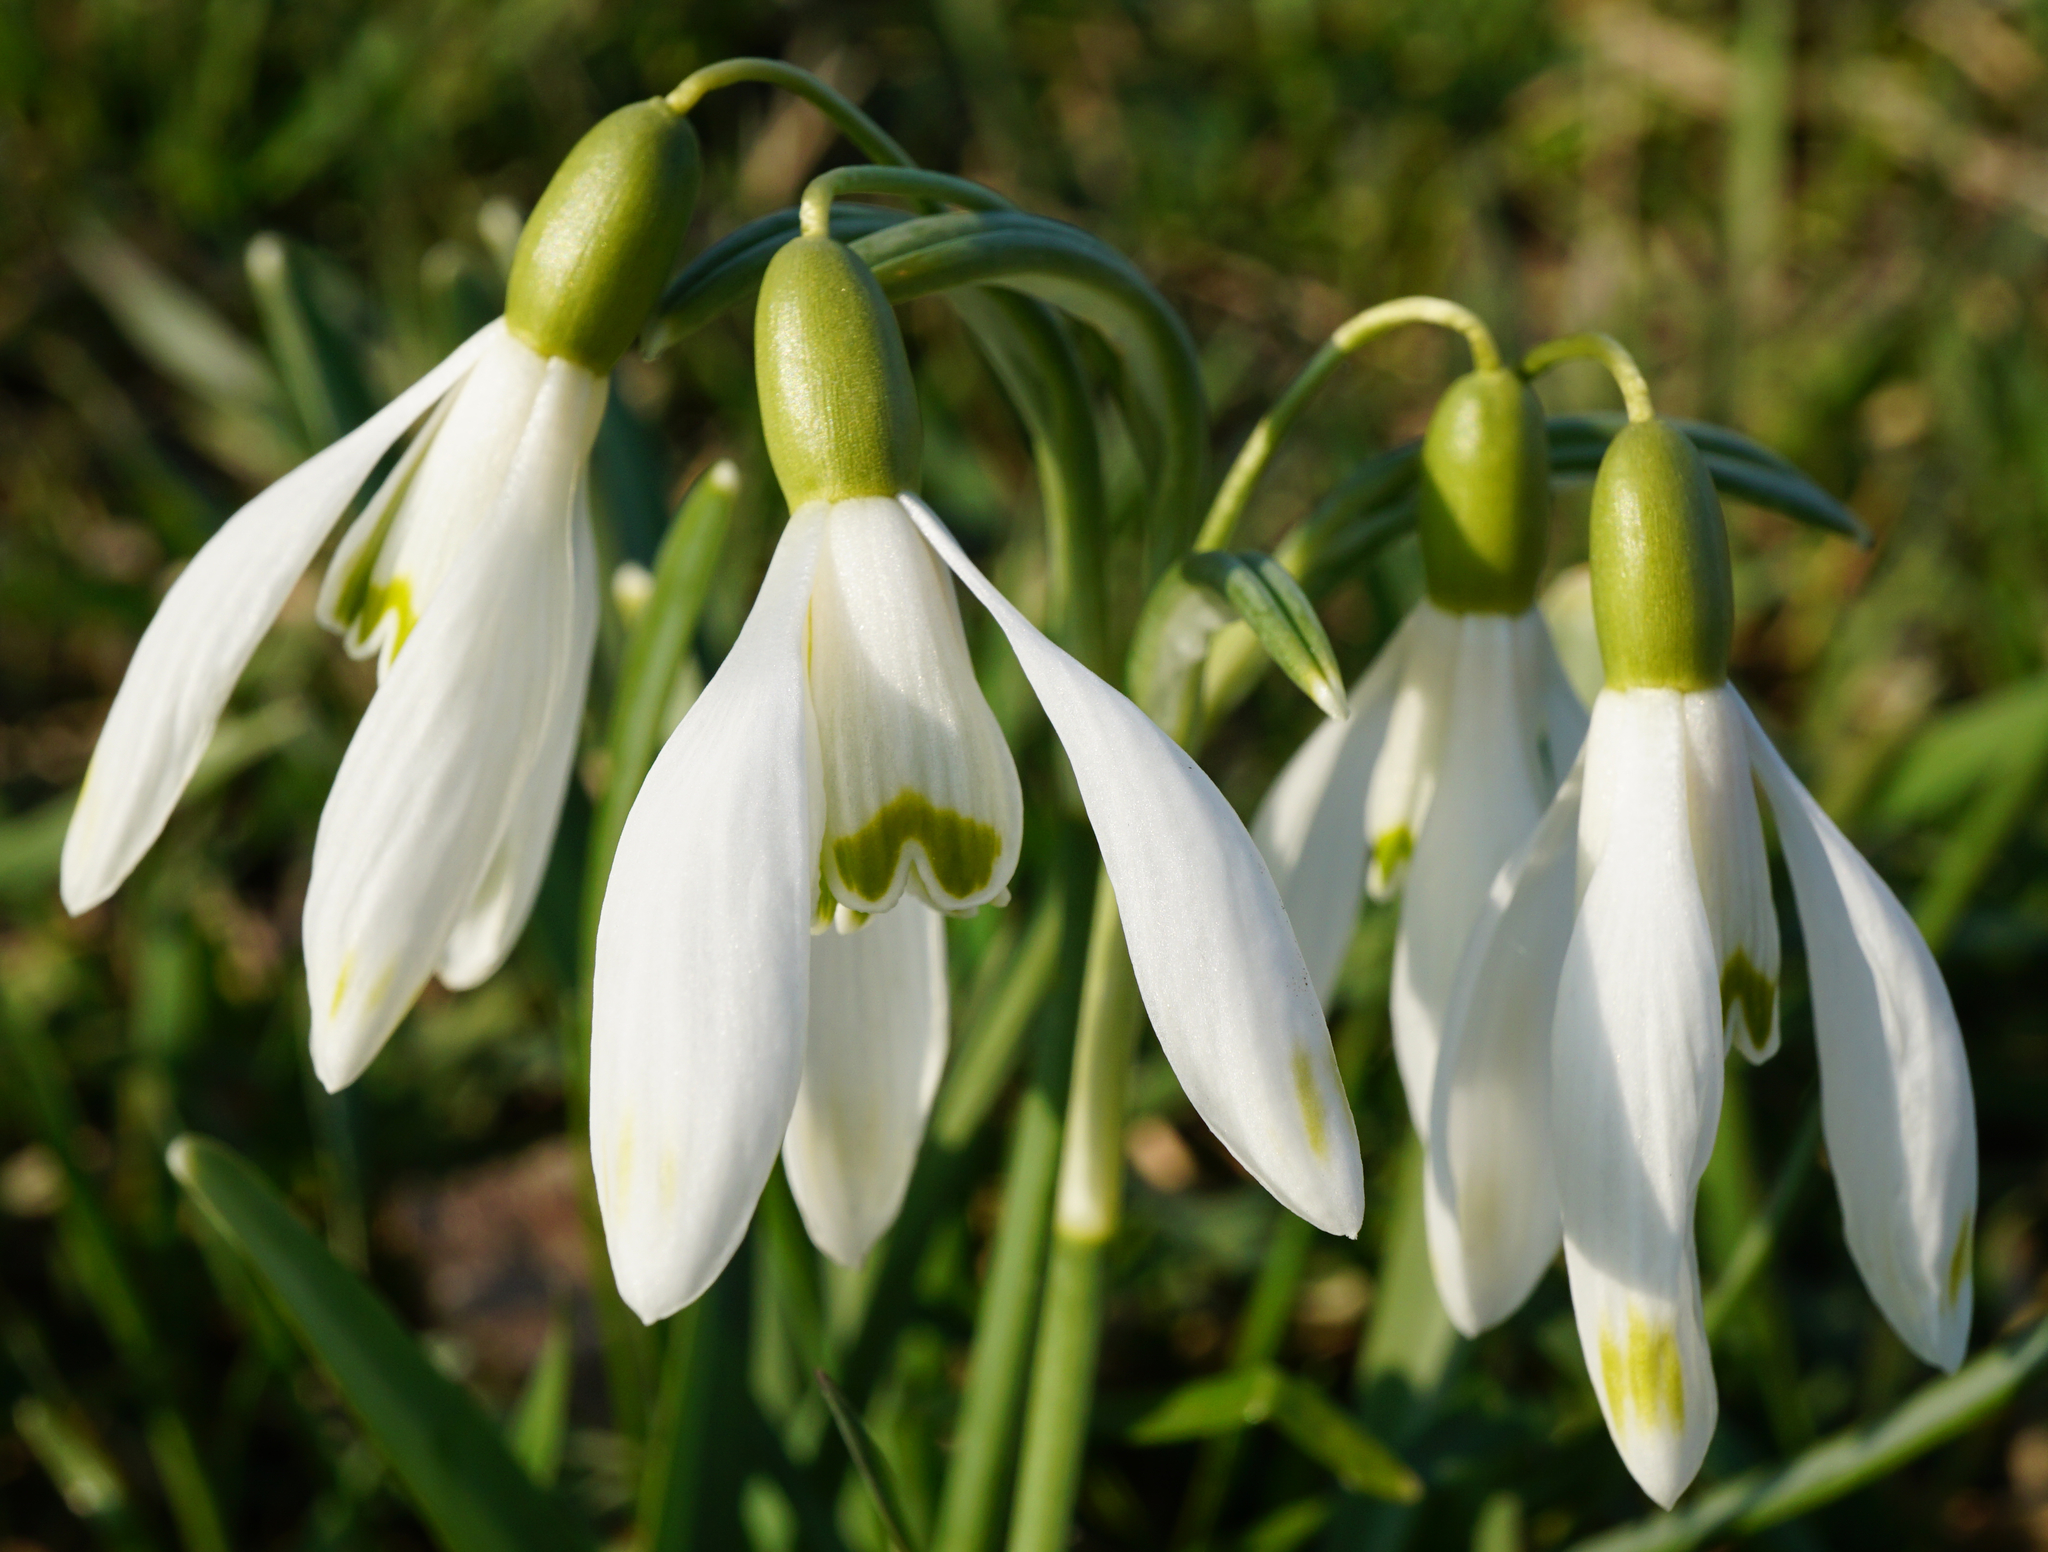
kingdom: Plantae
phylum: Tracheophyta
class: Liliopsida
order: Asparagales
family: Amaryllidaceae
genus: Galanthus
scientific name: Galanthus nivalis
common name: Snowdrop
